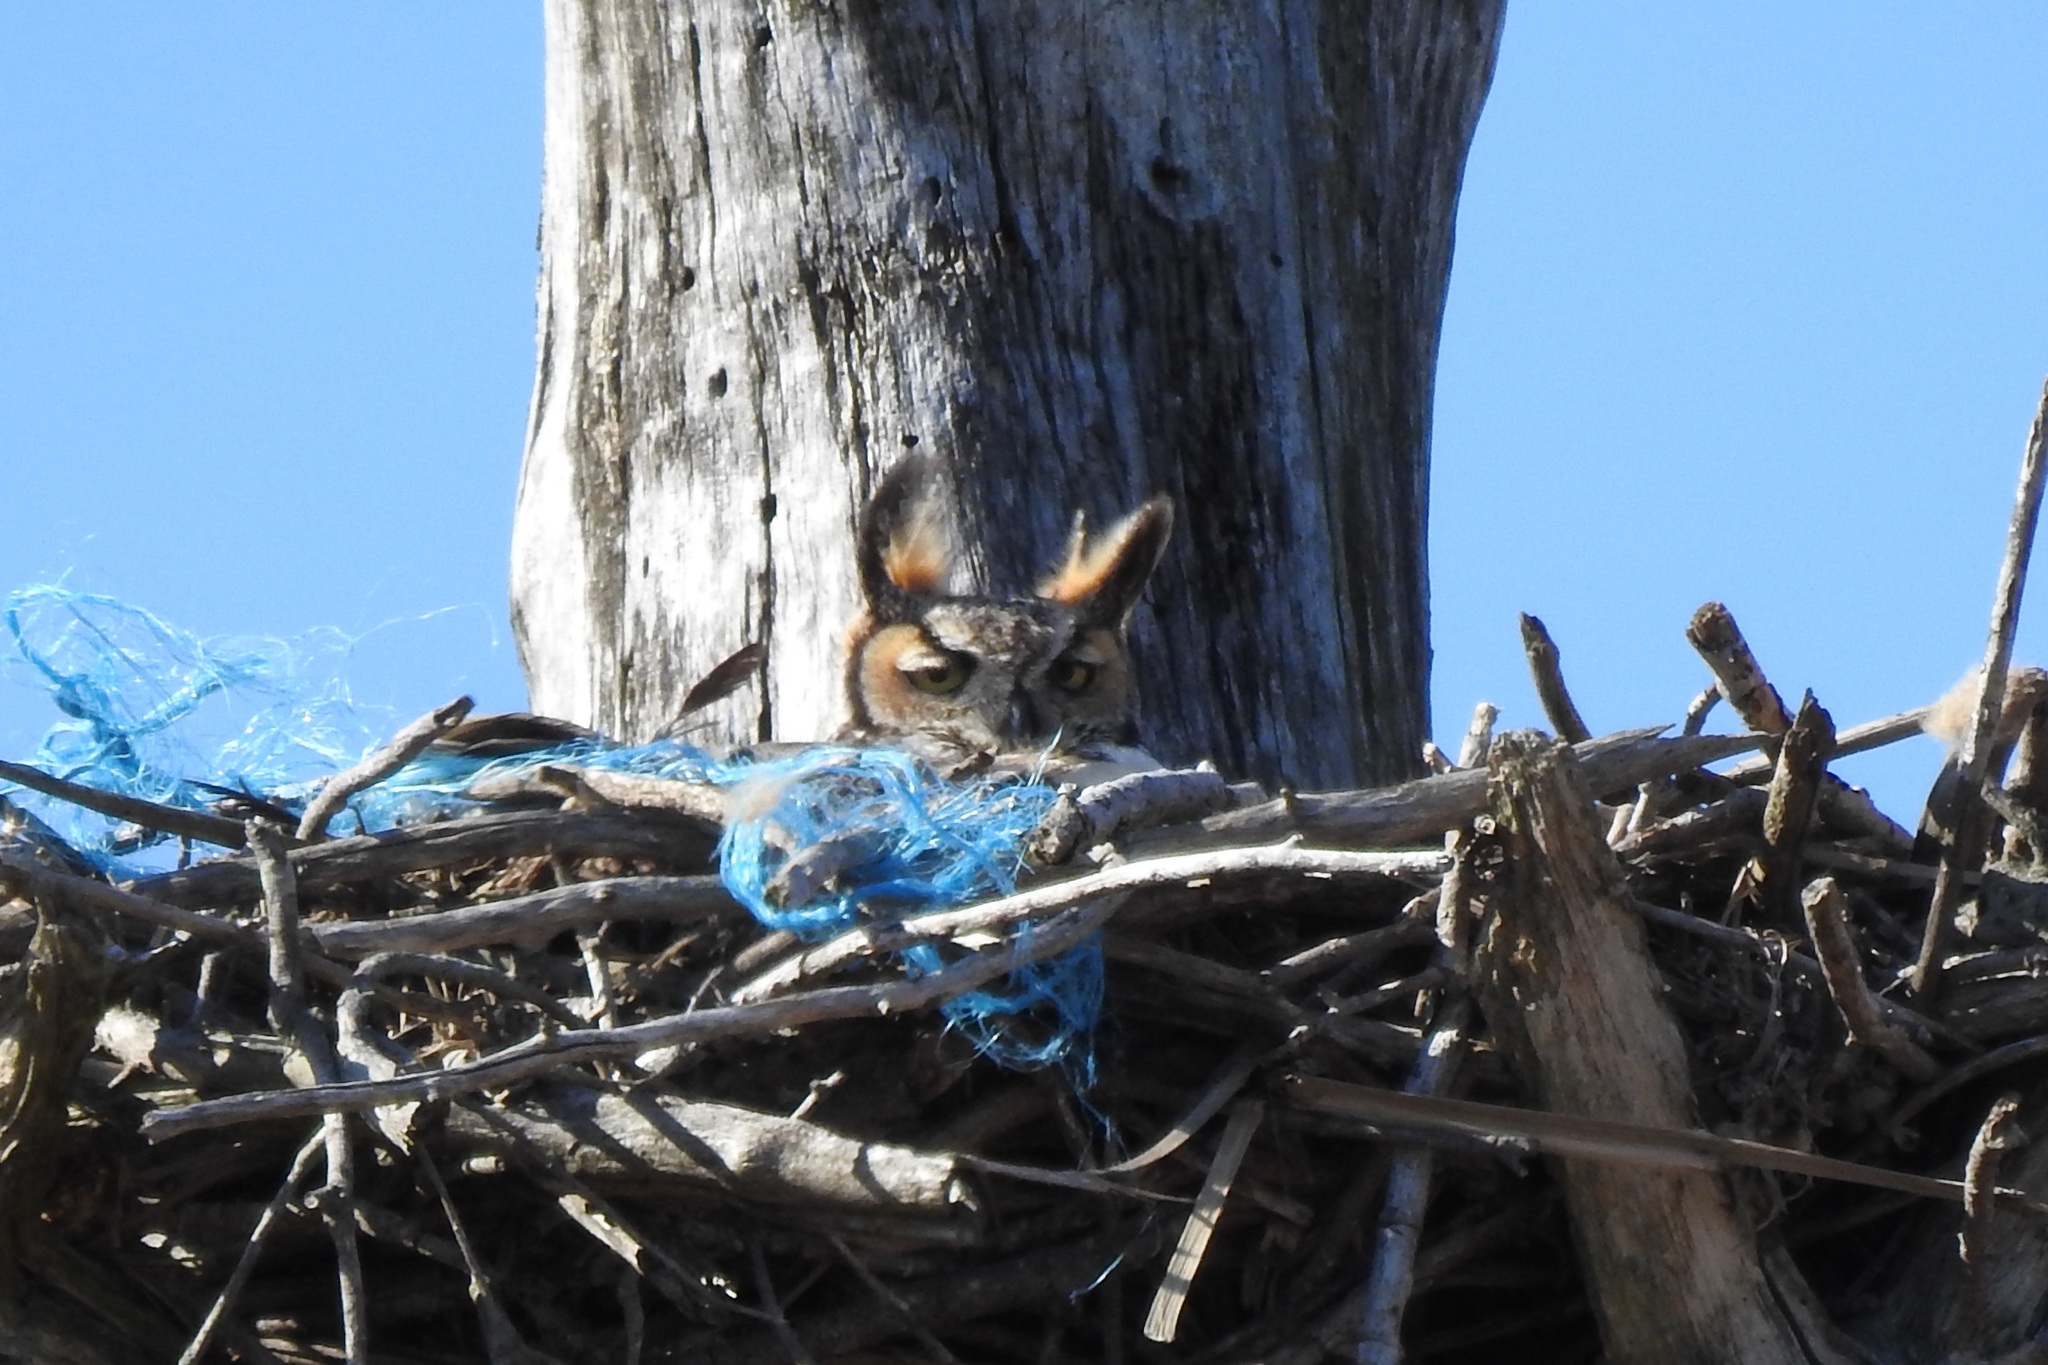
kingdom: Animalia
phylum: Chordata
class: Aves
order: Strigiformes
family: Strigidae
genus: Bubo
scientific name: Bubo virginianus
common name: Great horned owl
